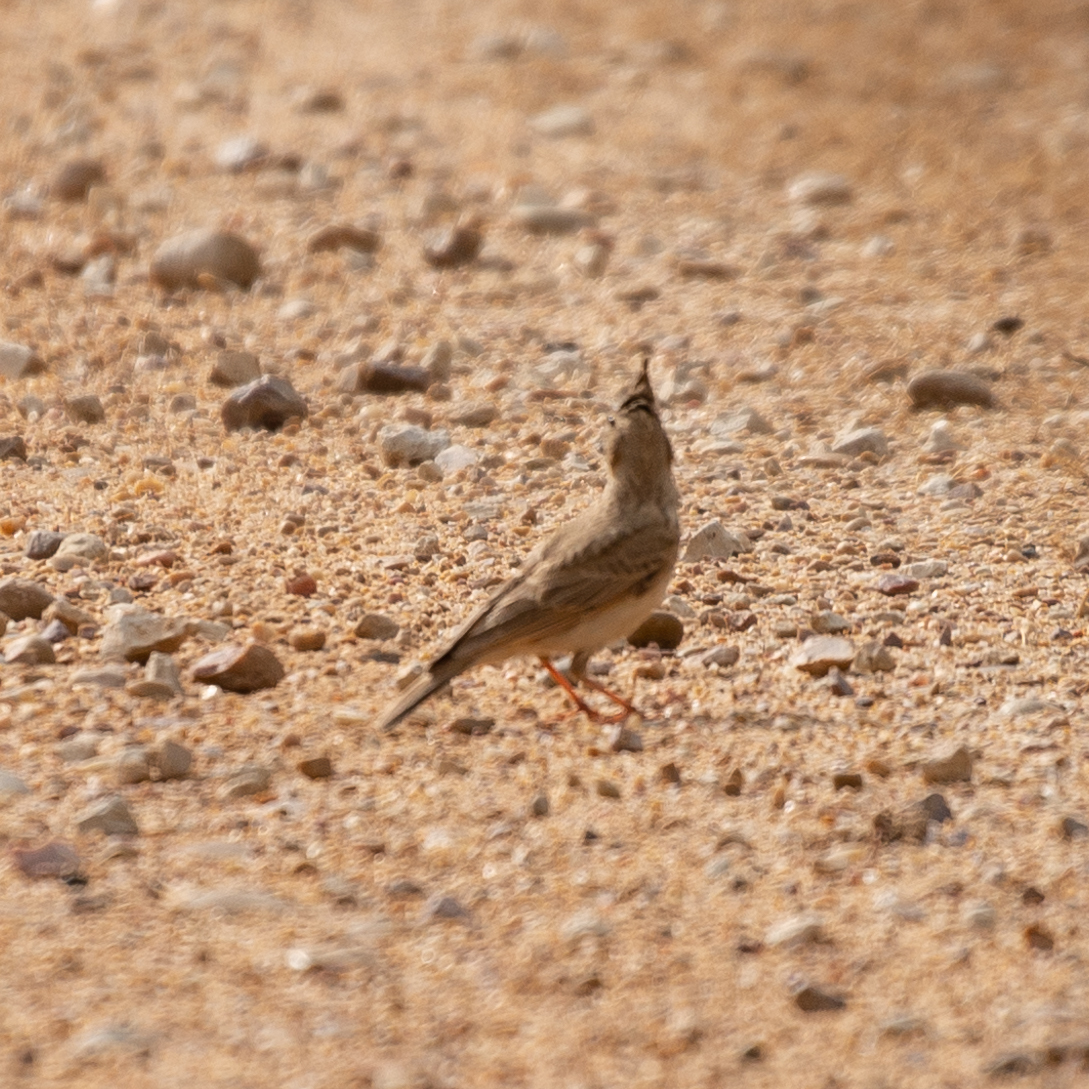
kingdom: Animalia
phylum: Chordata
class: Aves
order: Passeriformes
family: Alaudidae
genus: Galerida
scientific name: Galerida cristata
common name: Crested lark
